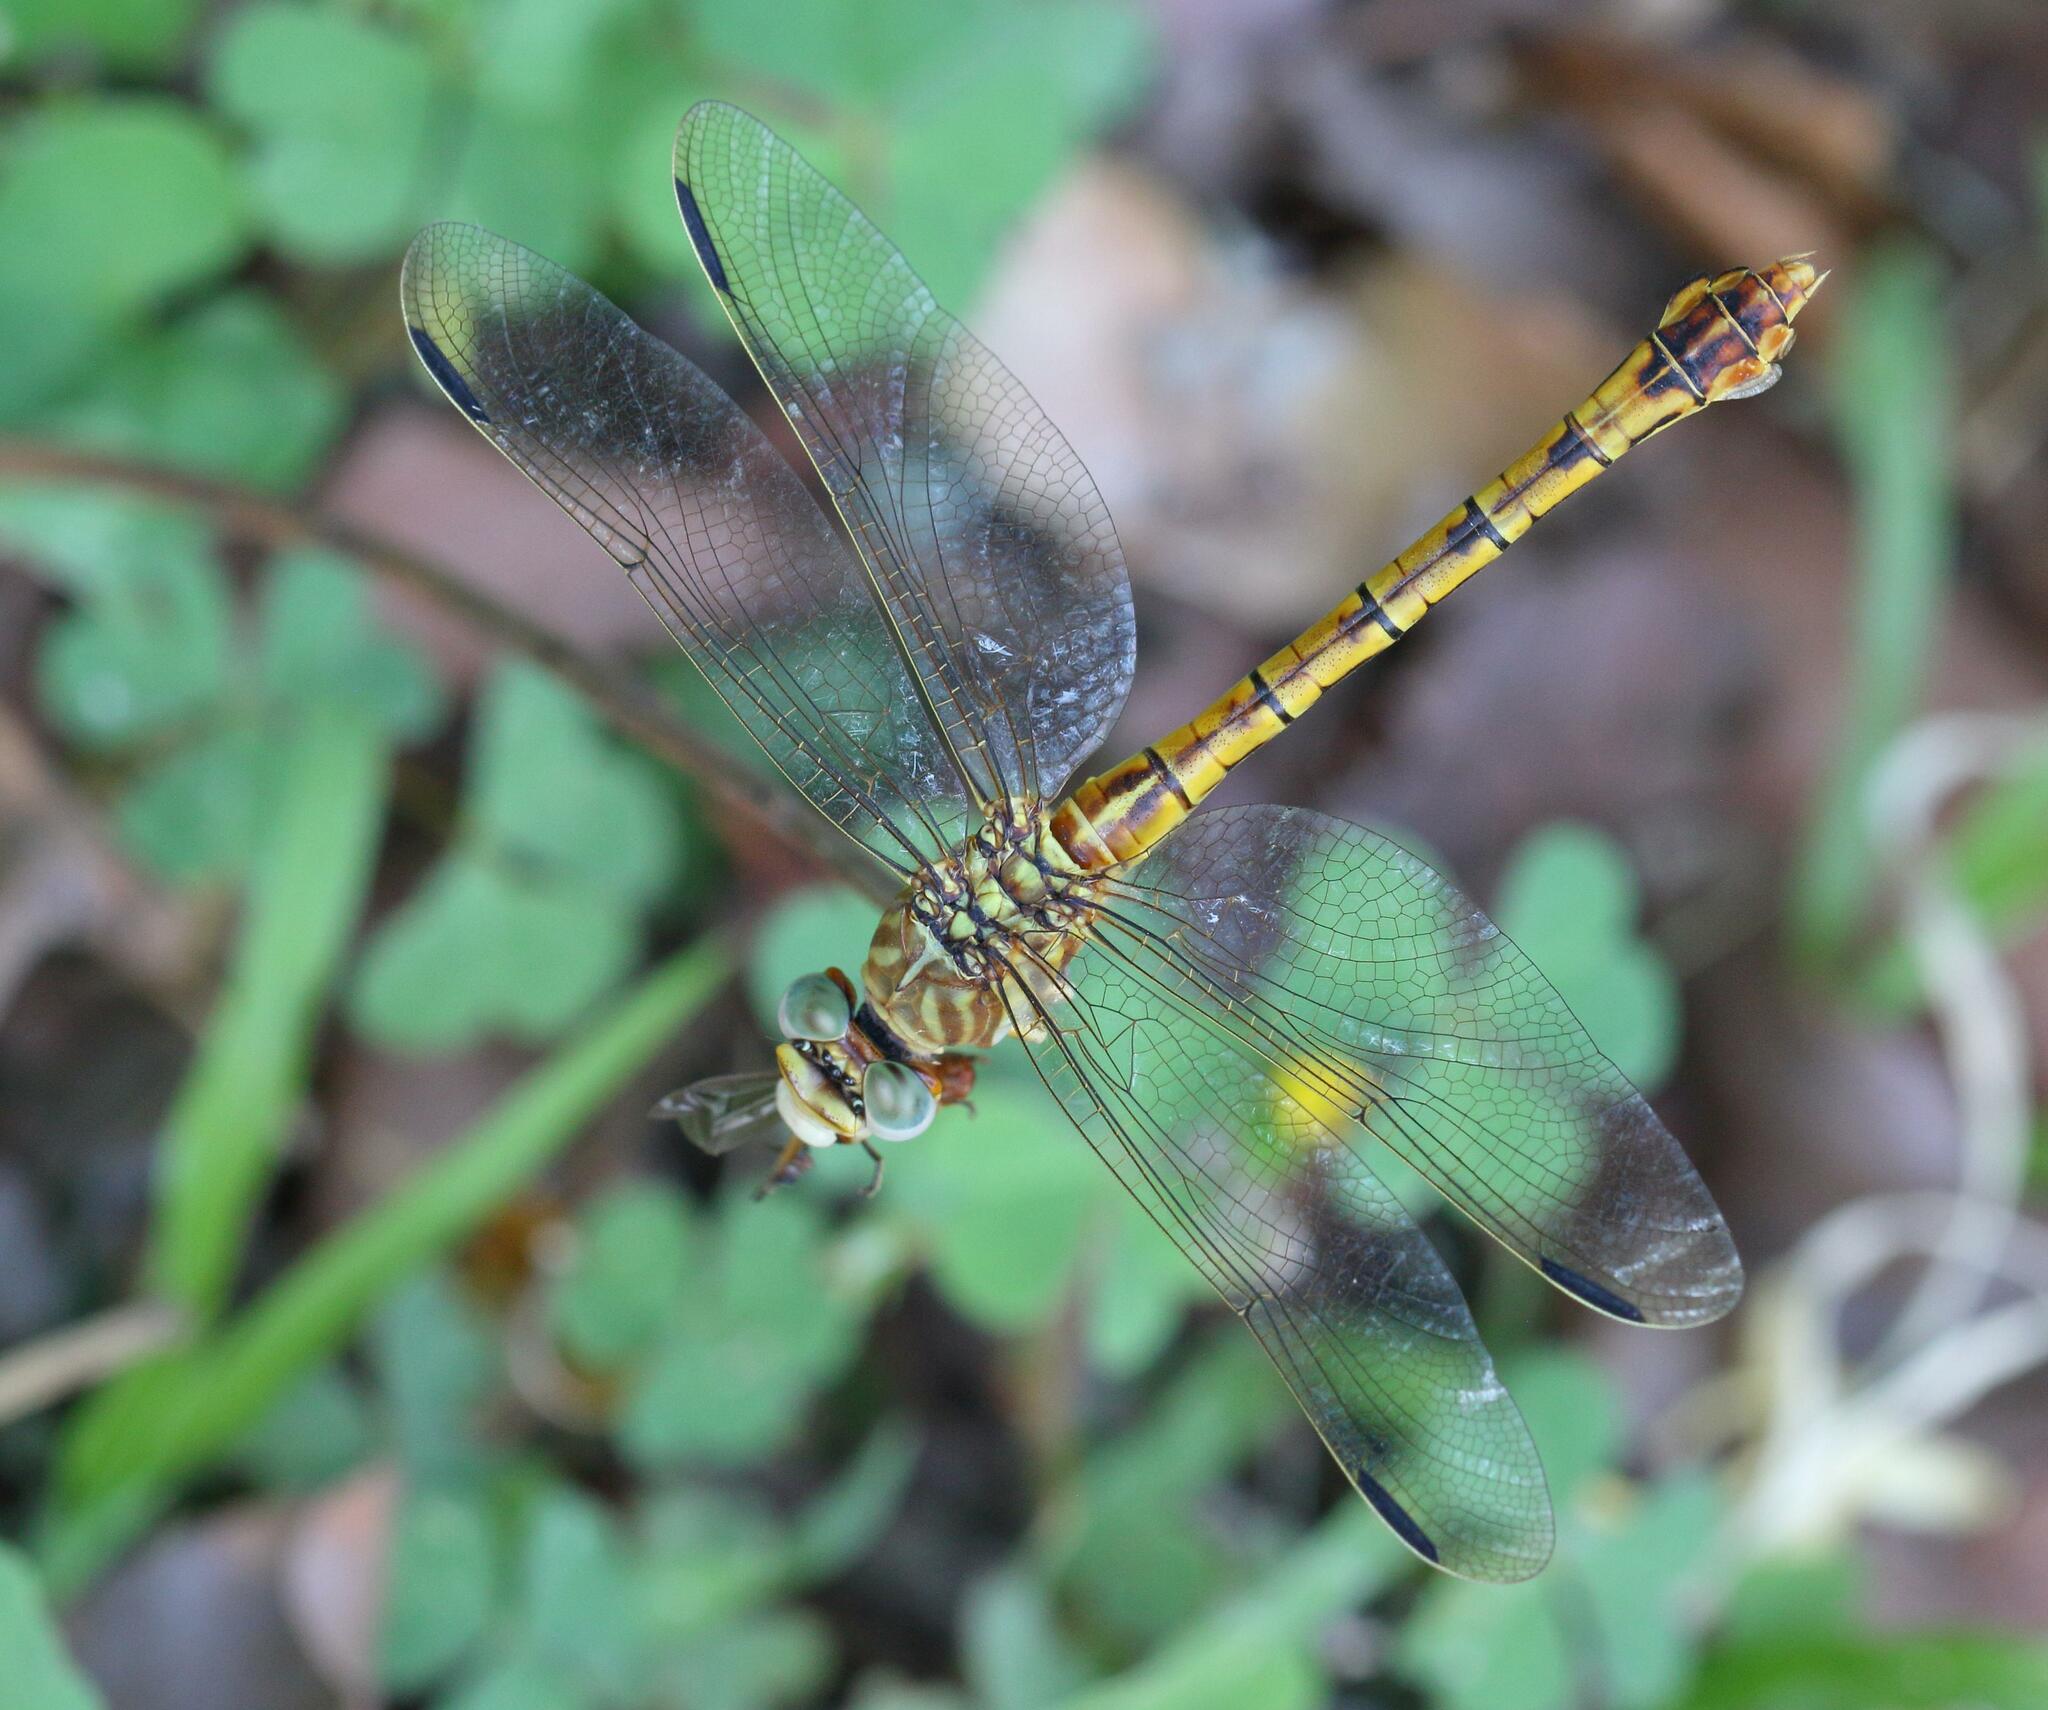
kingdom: Animalia
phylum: Arthropoda
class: Insecta
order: Odonata
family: Gomphidae
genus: Crenigomphus
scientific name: Crenigomphus hartmanni
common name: Clubbed talontail
